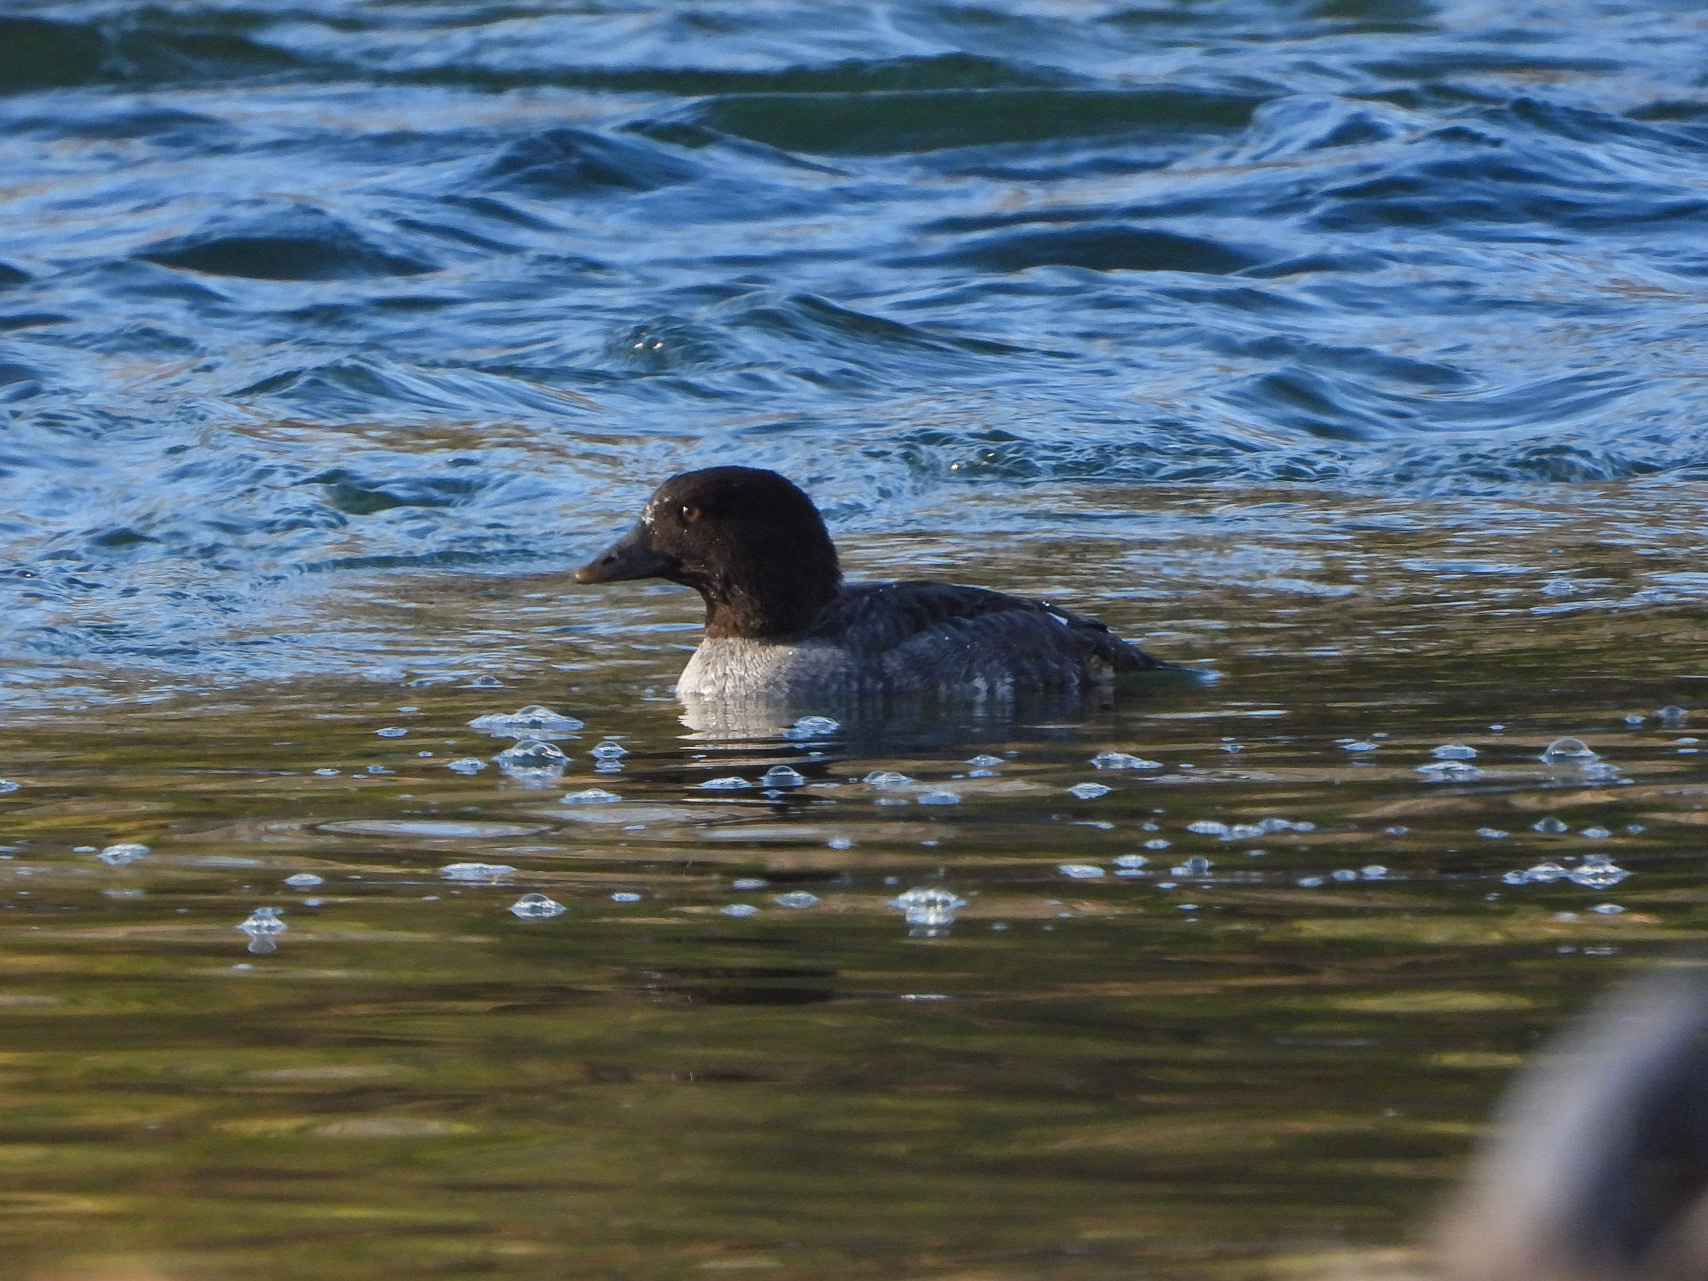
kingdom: Animalia
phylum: Chordata
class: Aves
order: Anseriformes
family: Anatidae
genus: Bucephala
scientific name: Bucephala clangula
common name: Common goldeneye
